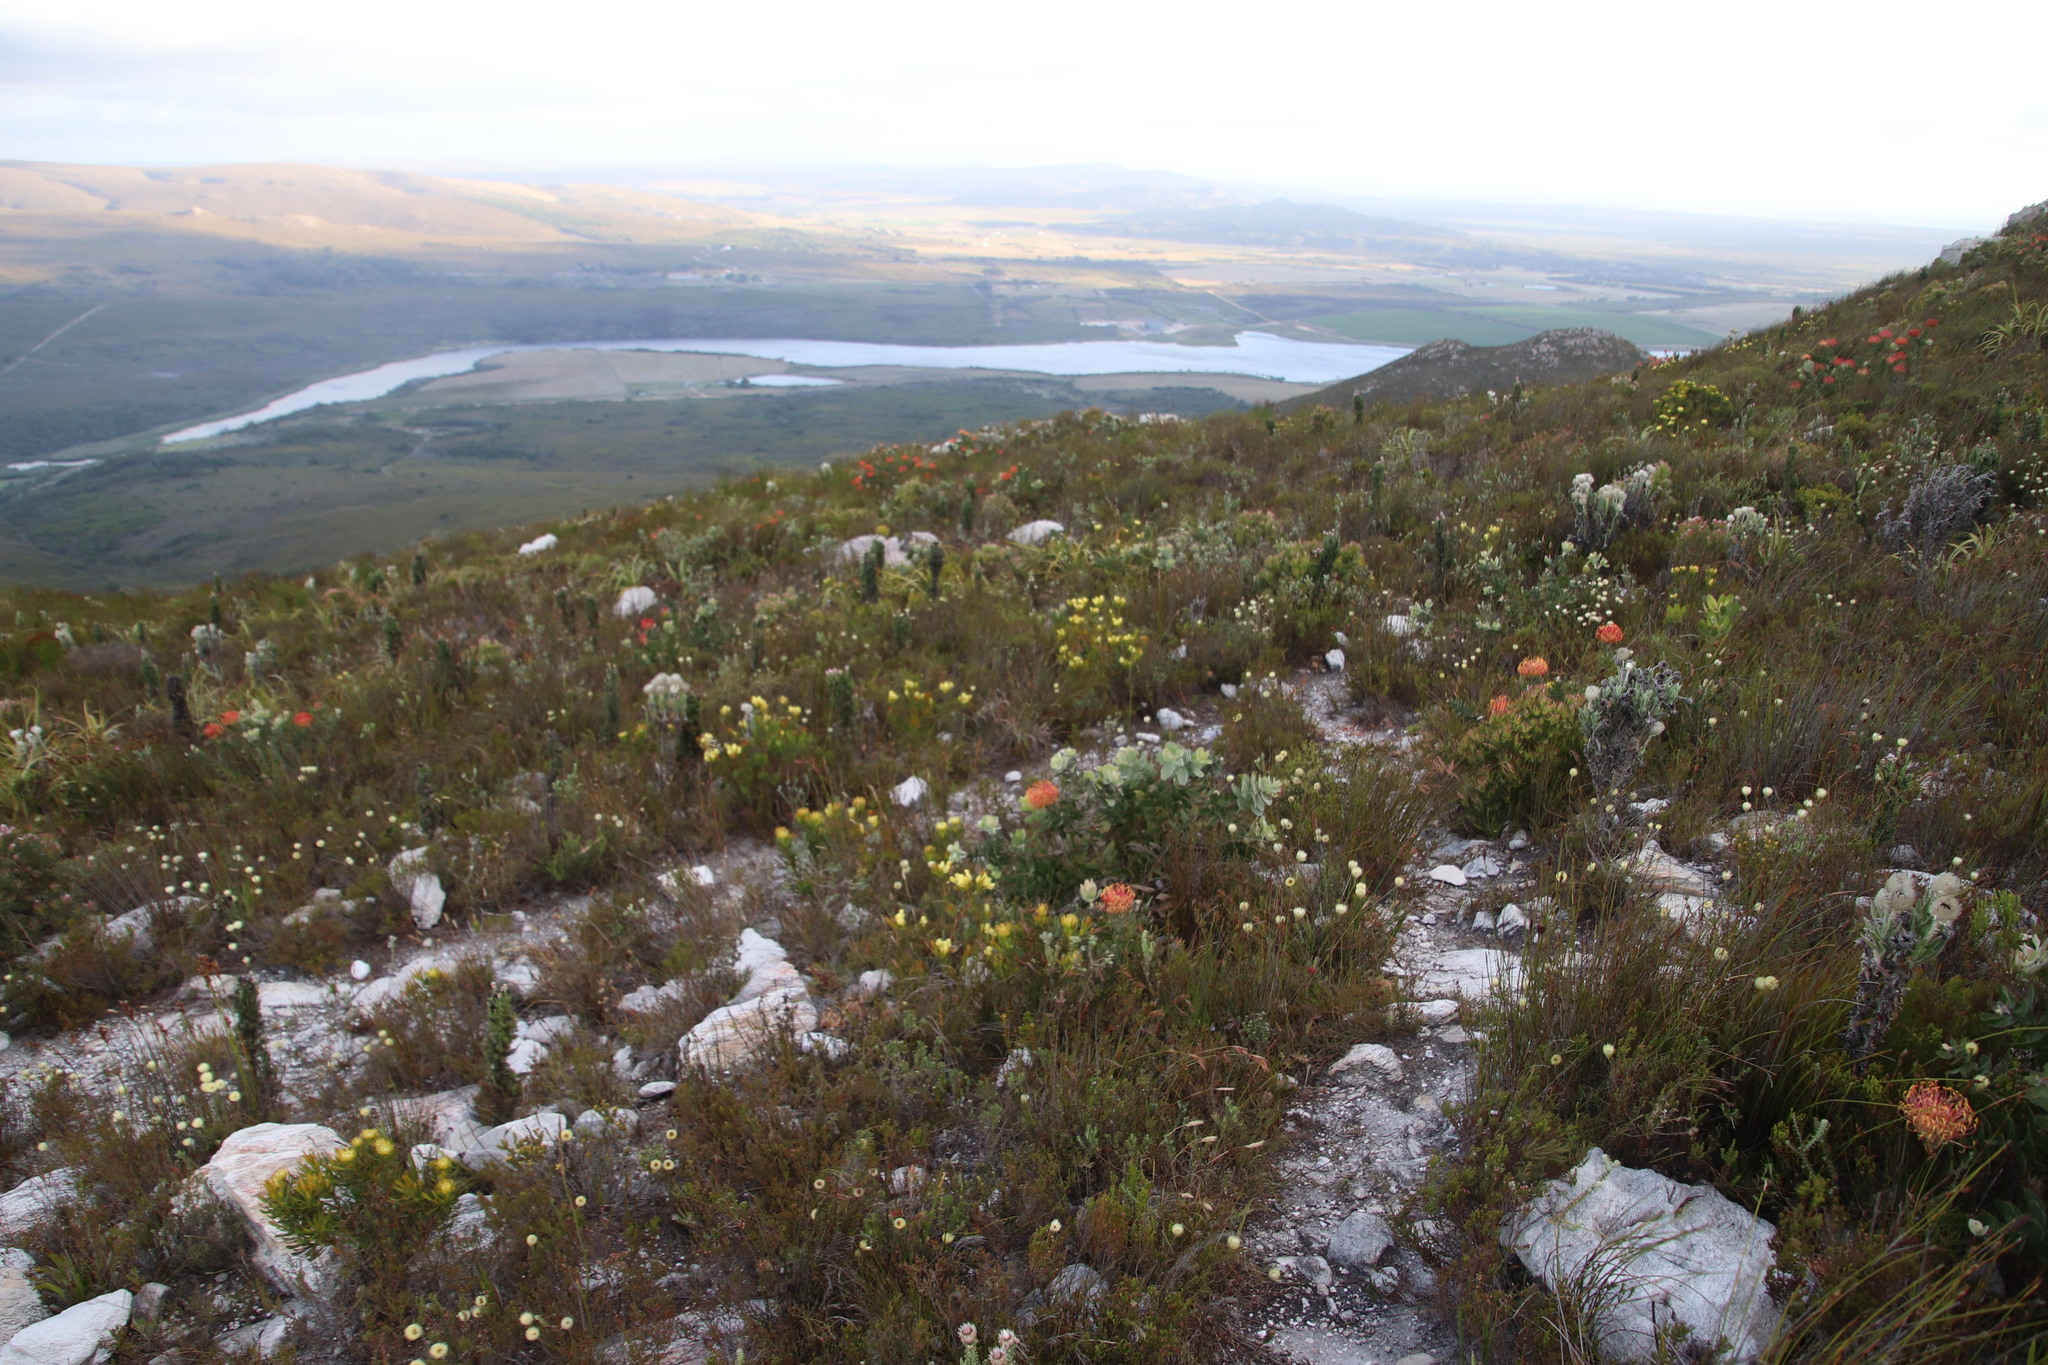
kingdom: Plantae
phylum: Tracheophyta
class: Magnoliopsida
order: Proteales
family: Proteaceae
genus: Leucospermum
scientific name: Leucospermum patersonii
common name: False tree pincushion
